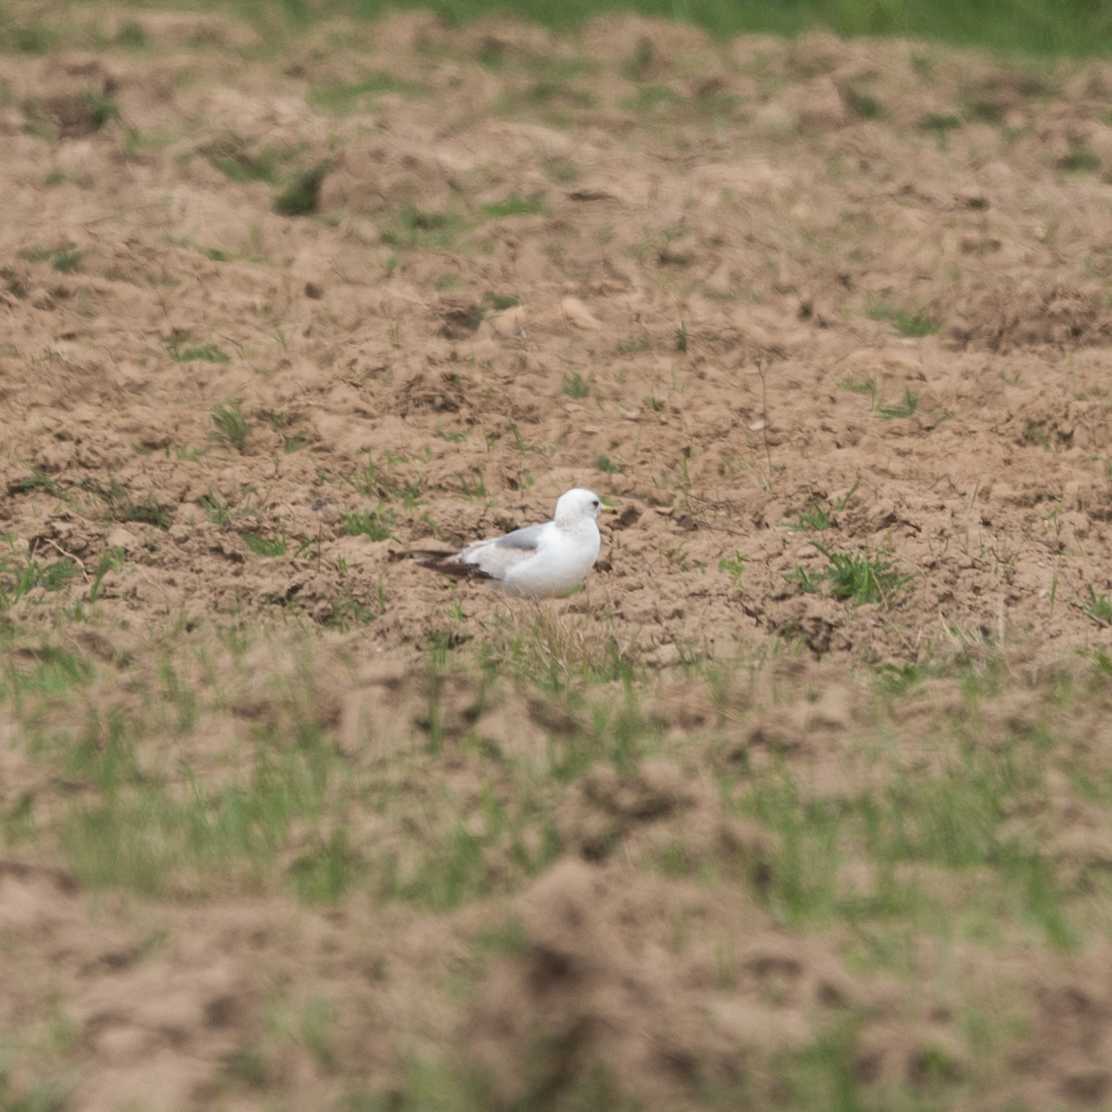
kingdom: Animalia
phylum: Chordata
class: Aves
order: Charadriiformes
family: Laridae
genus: Larus
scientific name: Larus canus
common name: Mew gull
